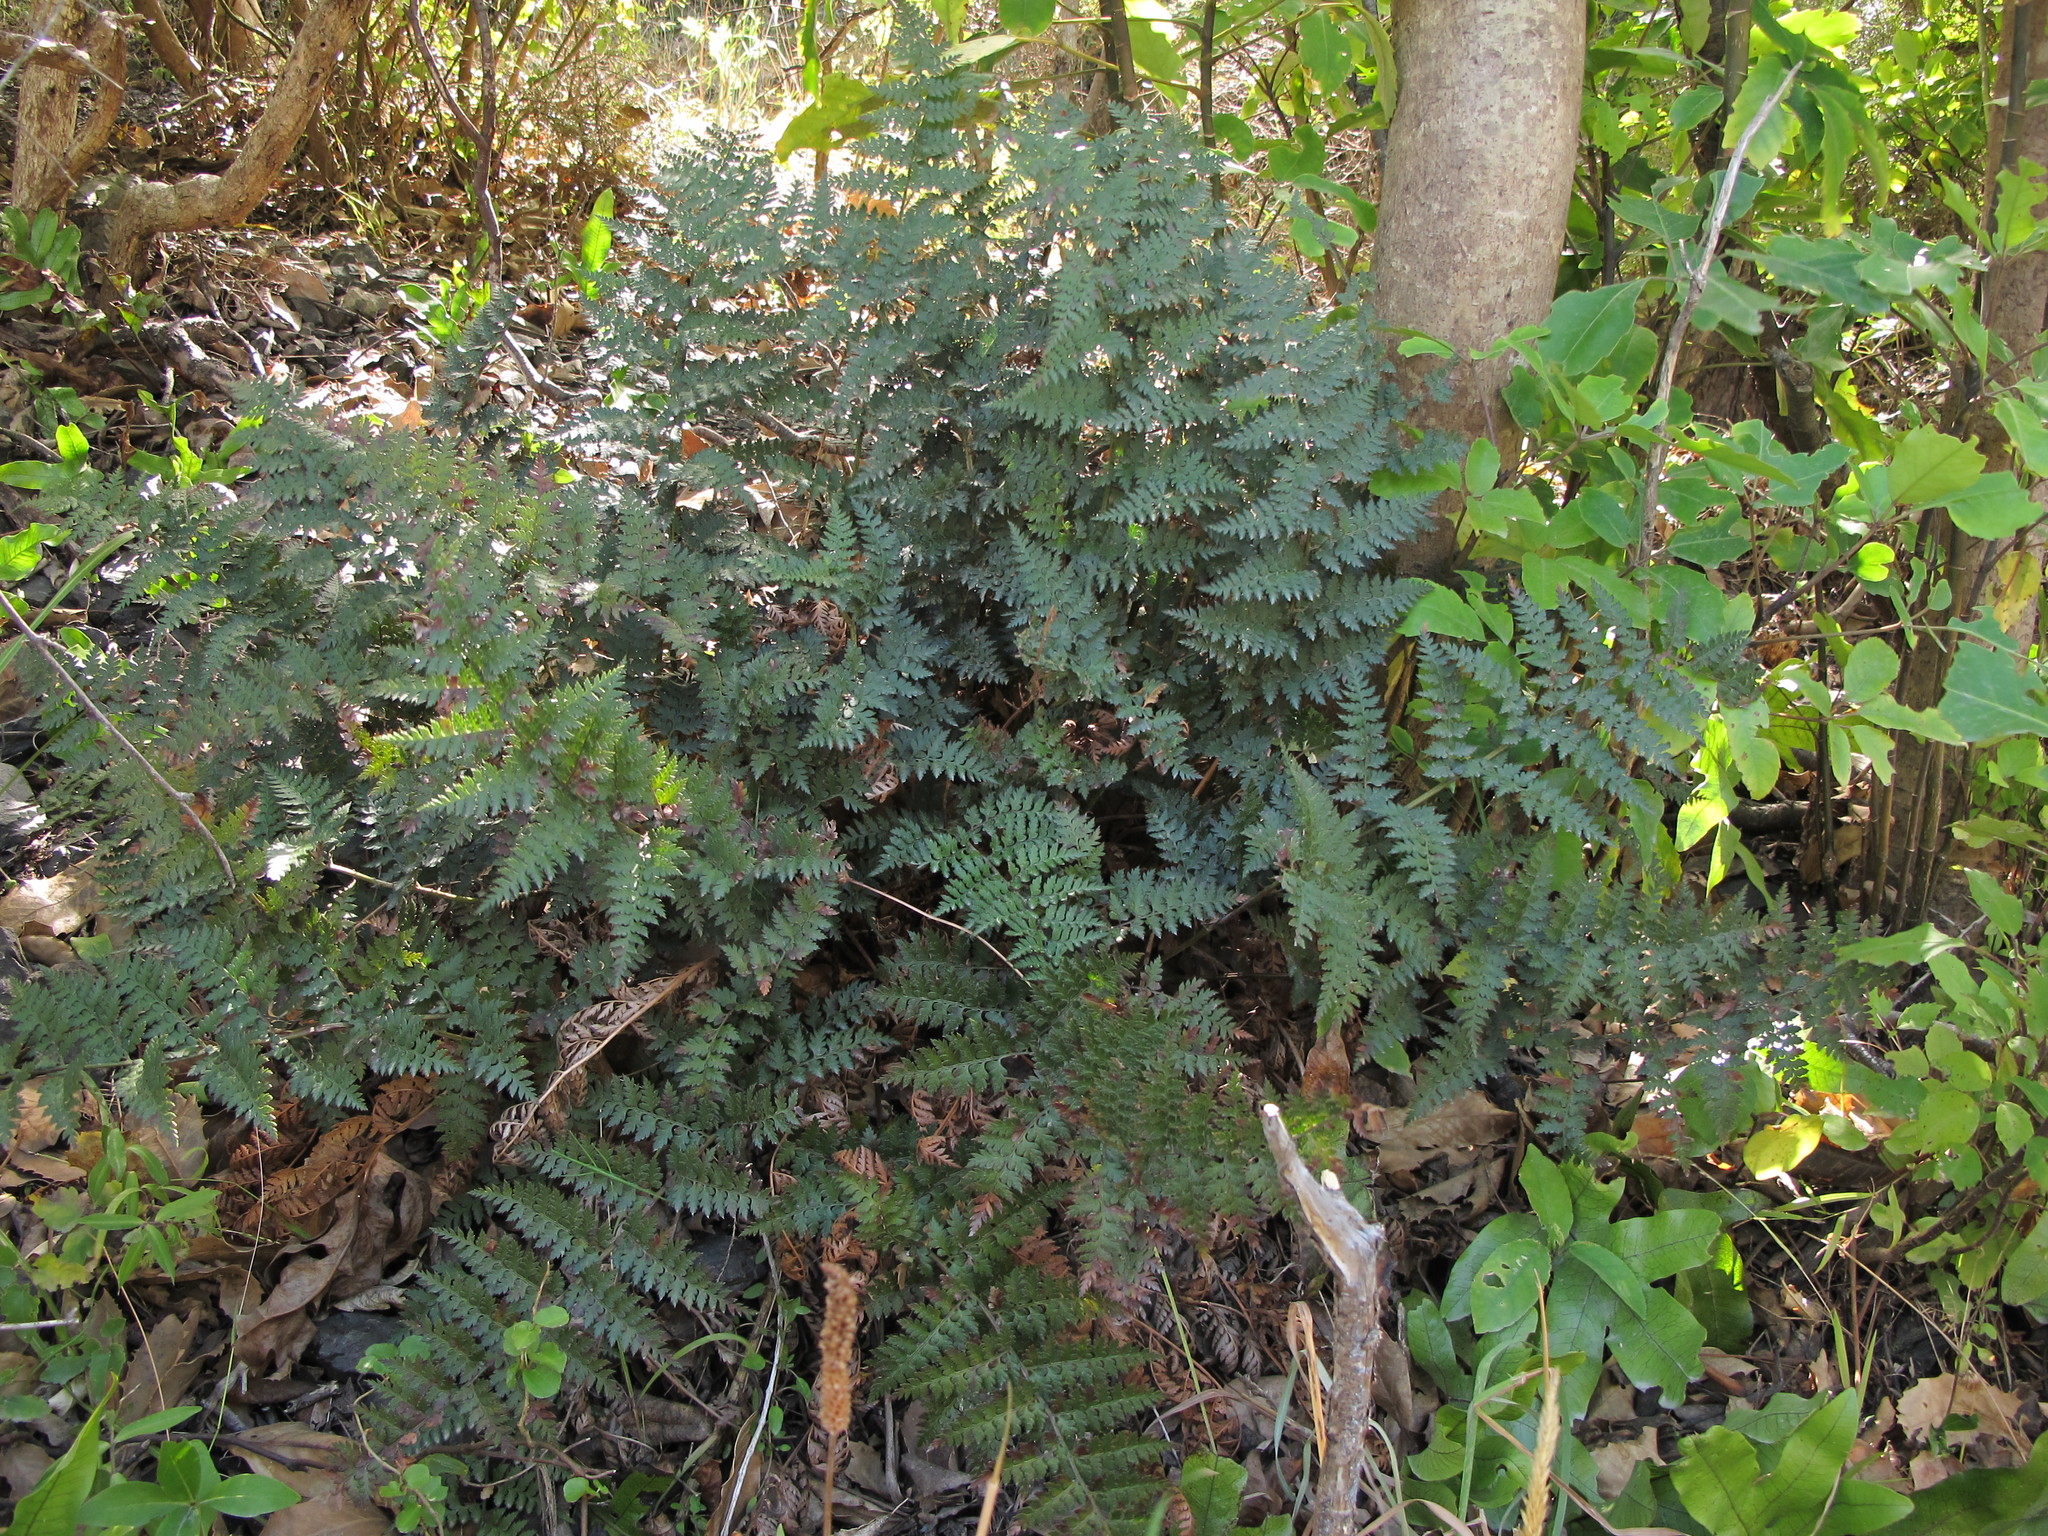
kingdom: Plantae
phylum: Tracheophyta
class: Polypodiopsida
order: Polypodiales
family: Dryopteridaceae
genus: Polystichum
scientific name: Polystichum oculatum
